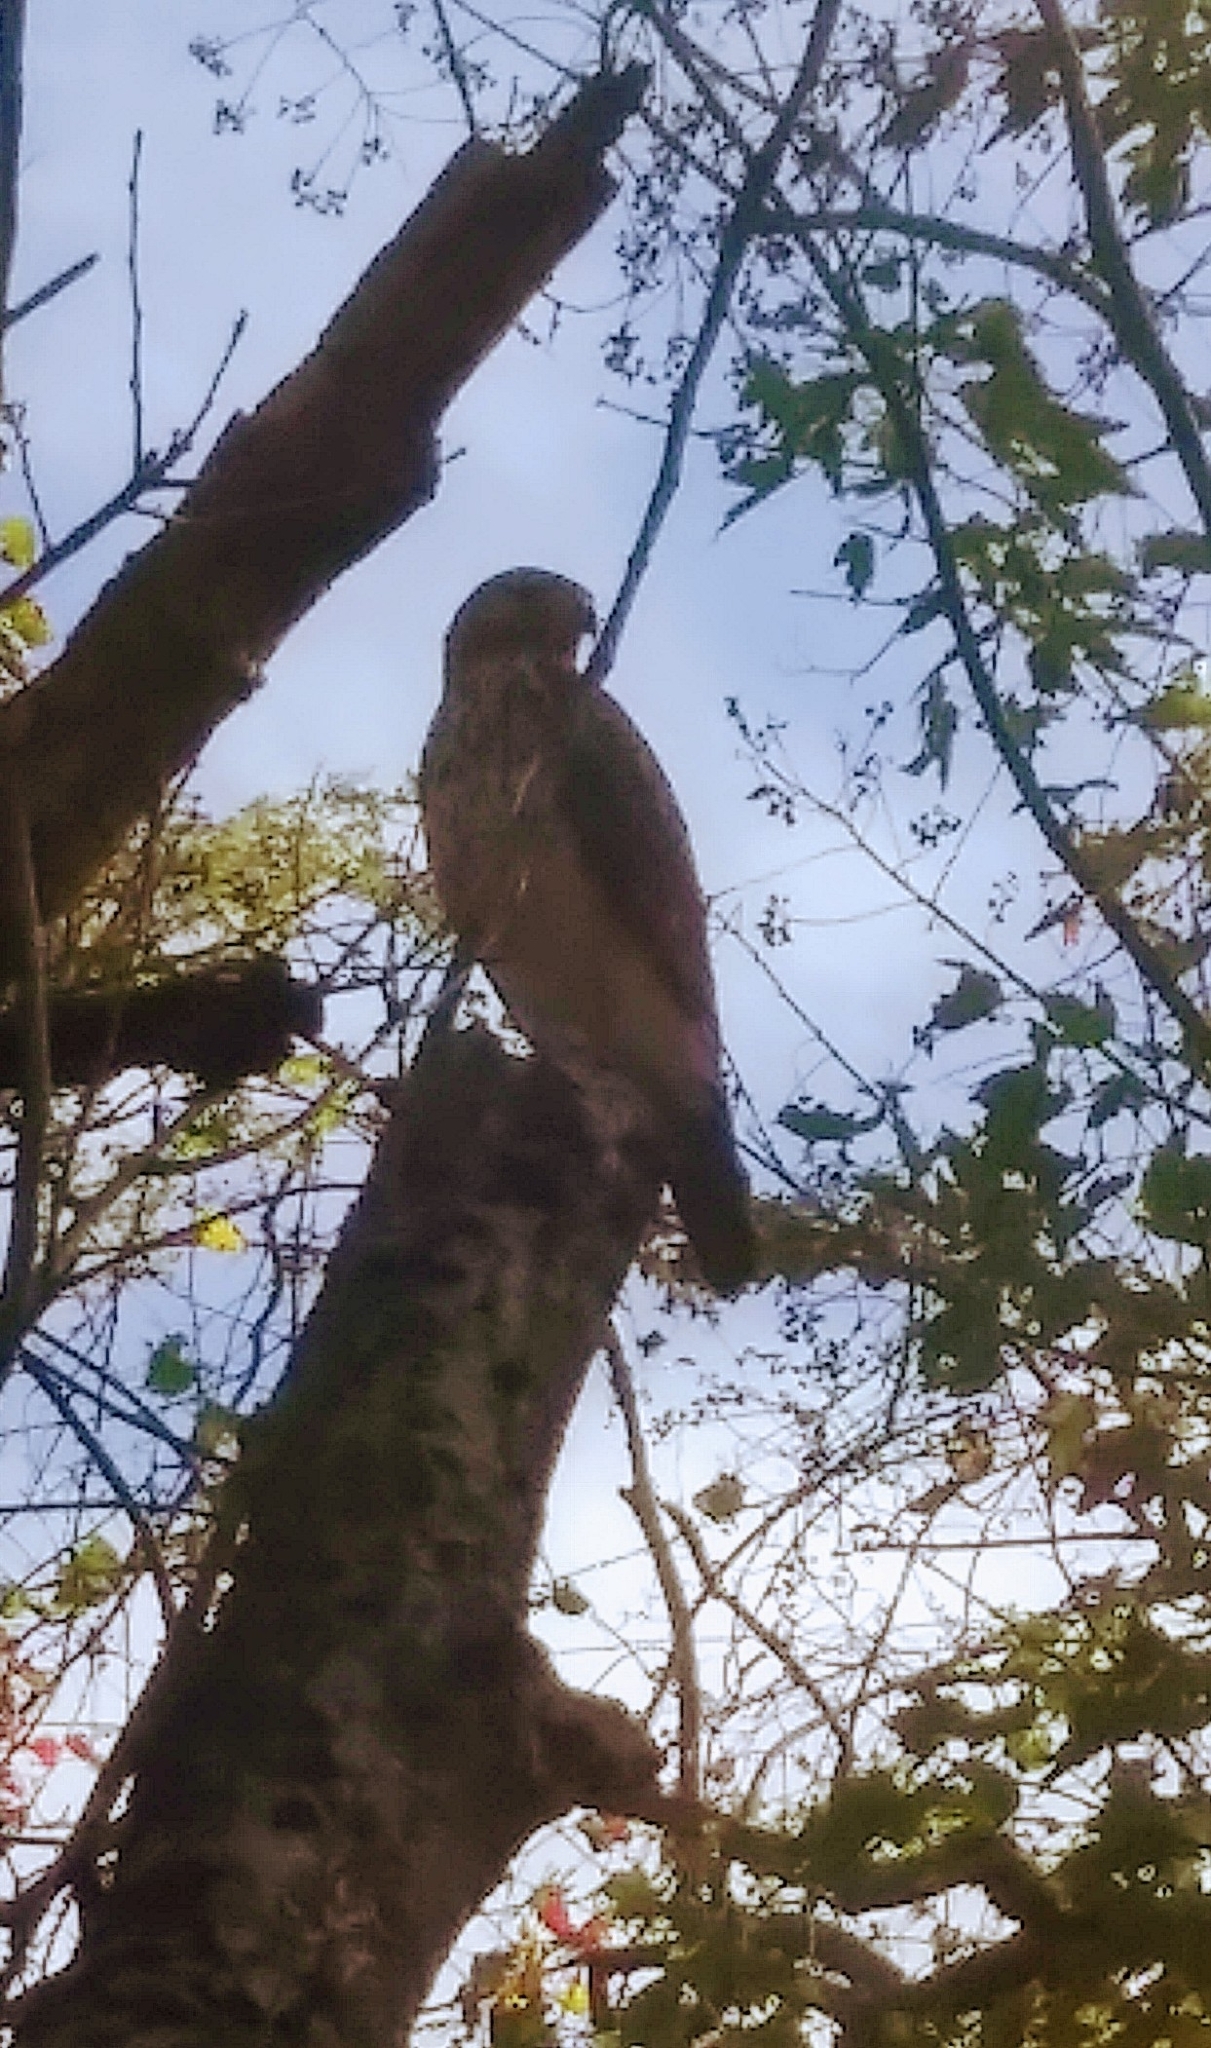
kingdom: Animalia
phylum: Chordata
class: Aves
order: Accipitriformes
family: Accipitridae
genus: Buteo
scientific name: Buteo lineatus
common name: Red-shouldered hawk
